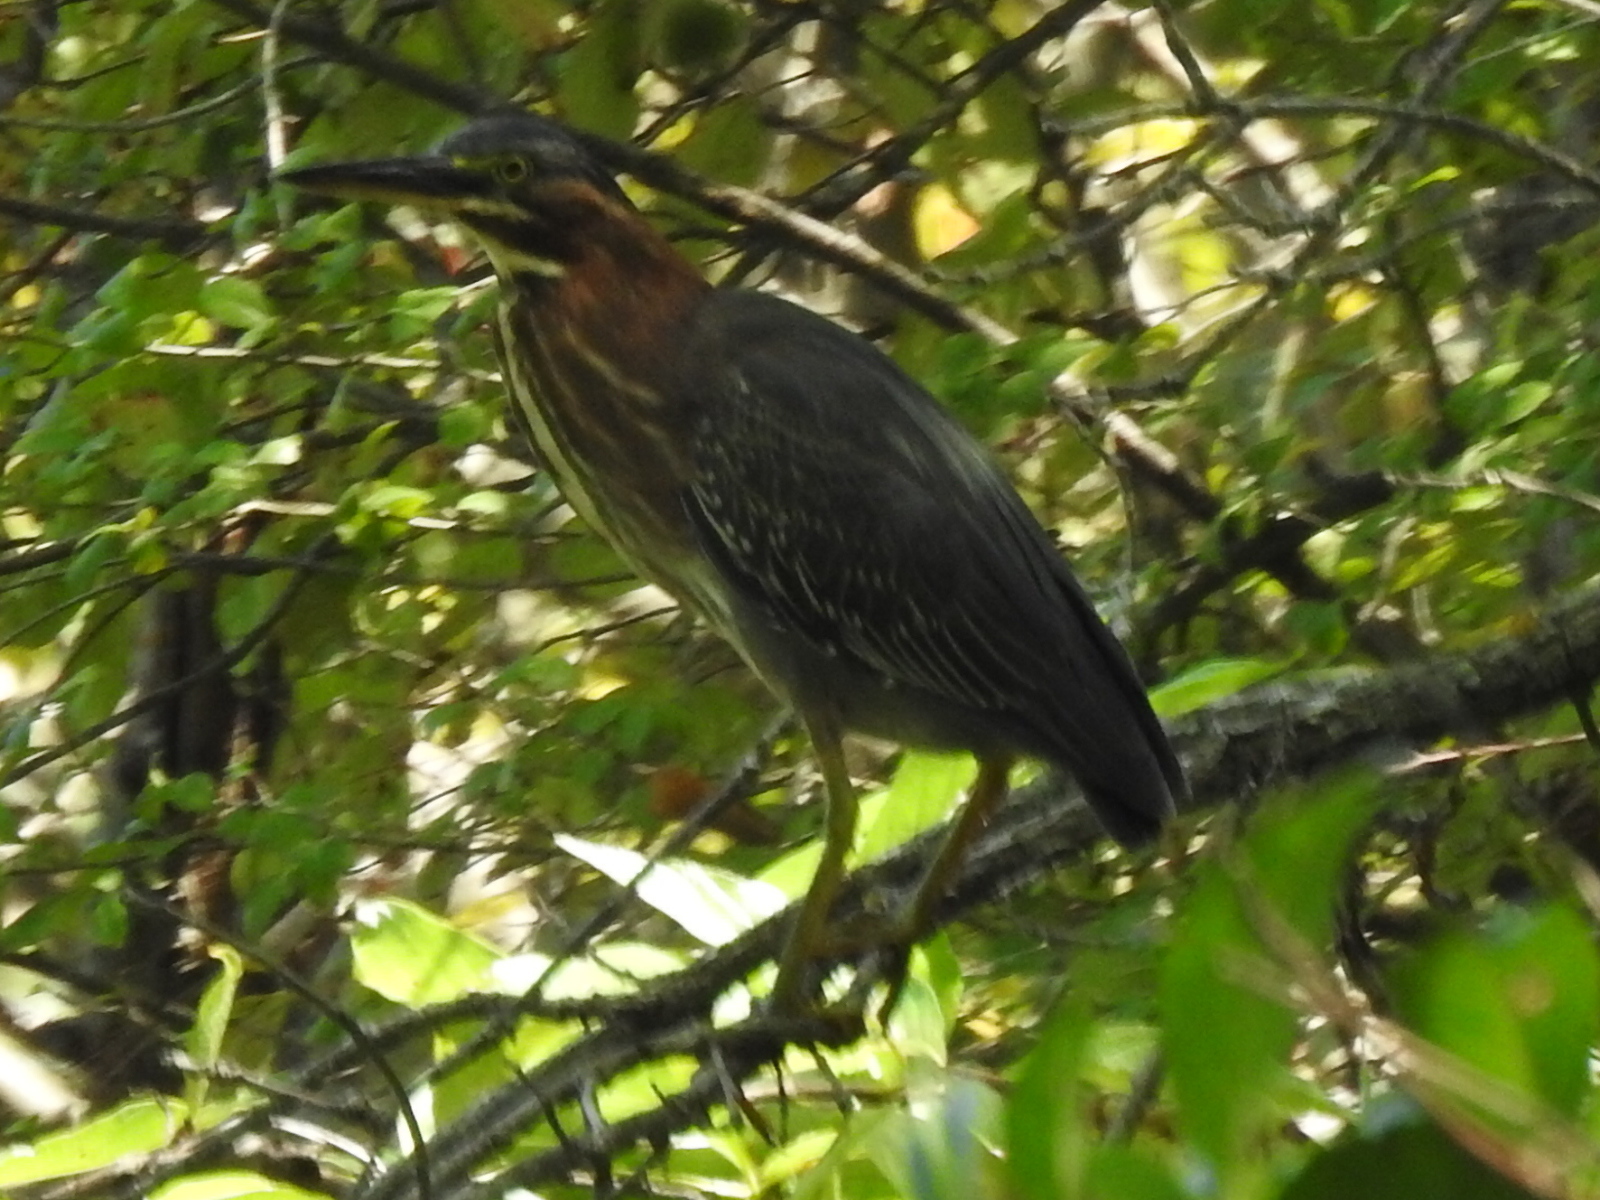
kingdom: Animalia
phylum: Chordata
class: Aves
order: Pelecaniformes
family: Ardeidae
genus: Butorides
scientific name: Butorides virescens
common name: Green heron
